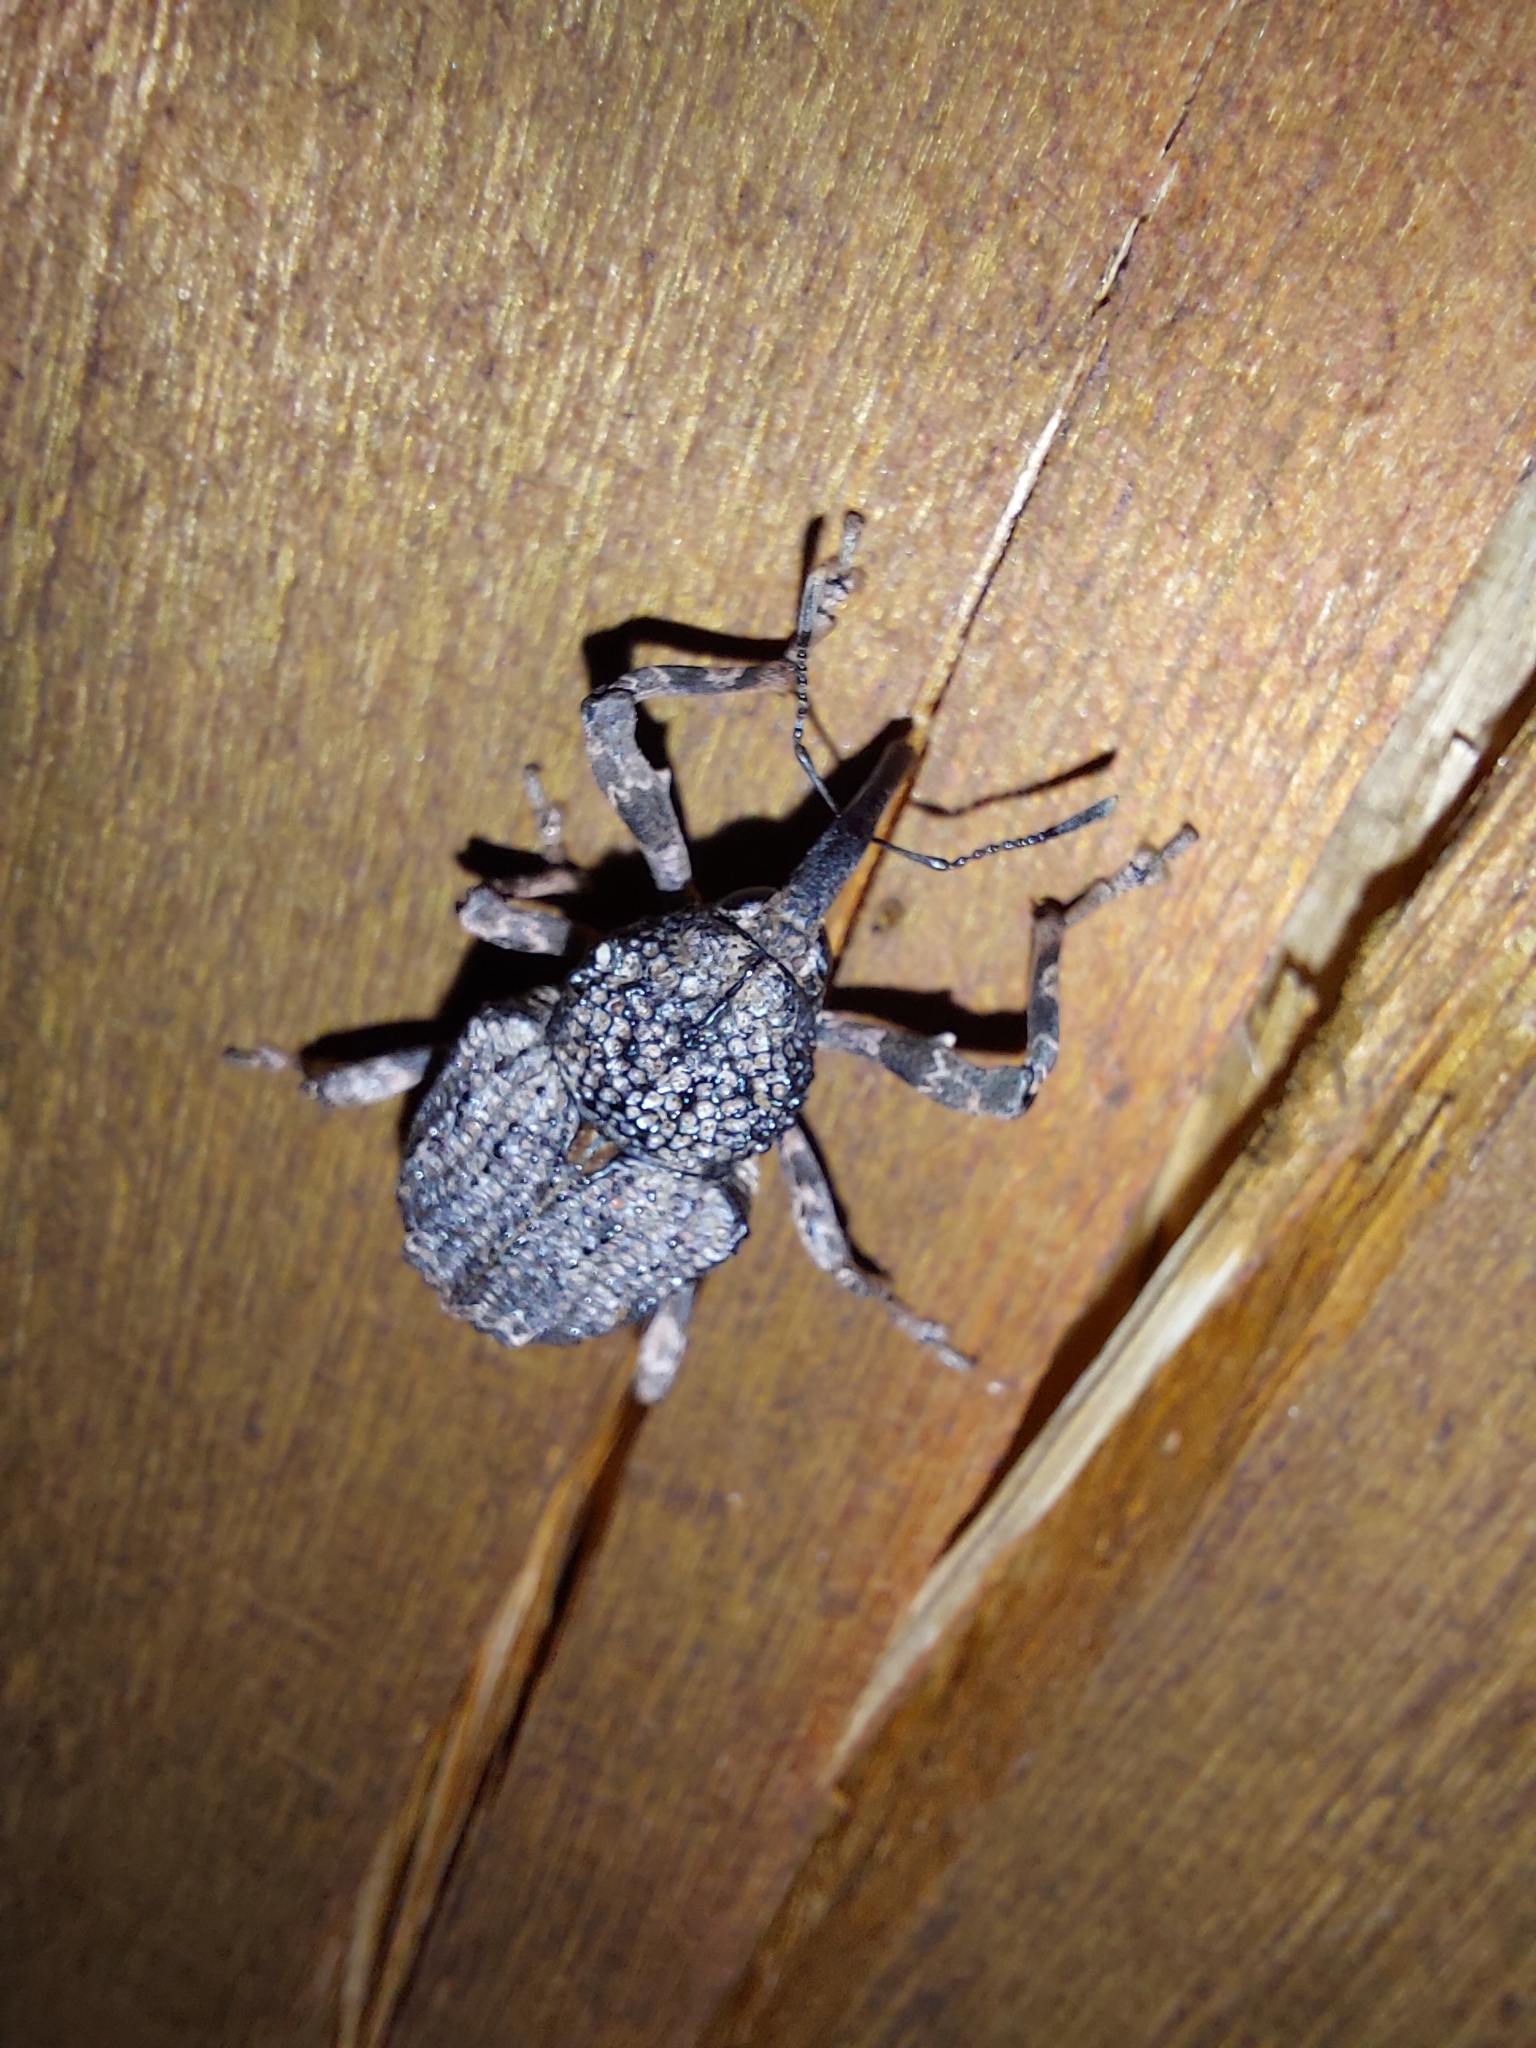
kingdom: Animalia
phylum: Arthropoda
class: Insecta
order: Coleoptera
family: Curculionidae
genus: Mecocorynus
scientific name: Mecocorynus
